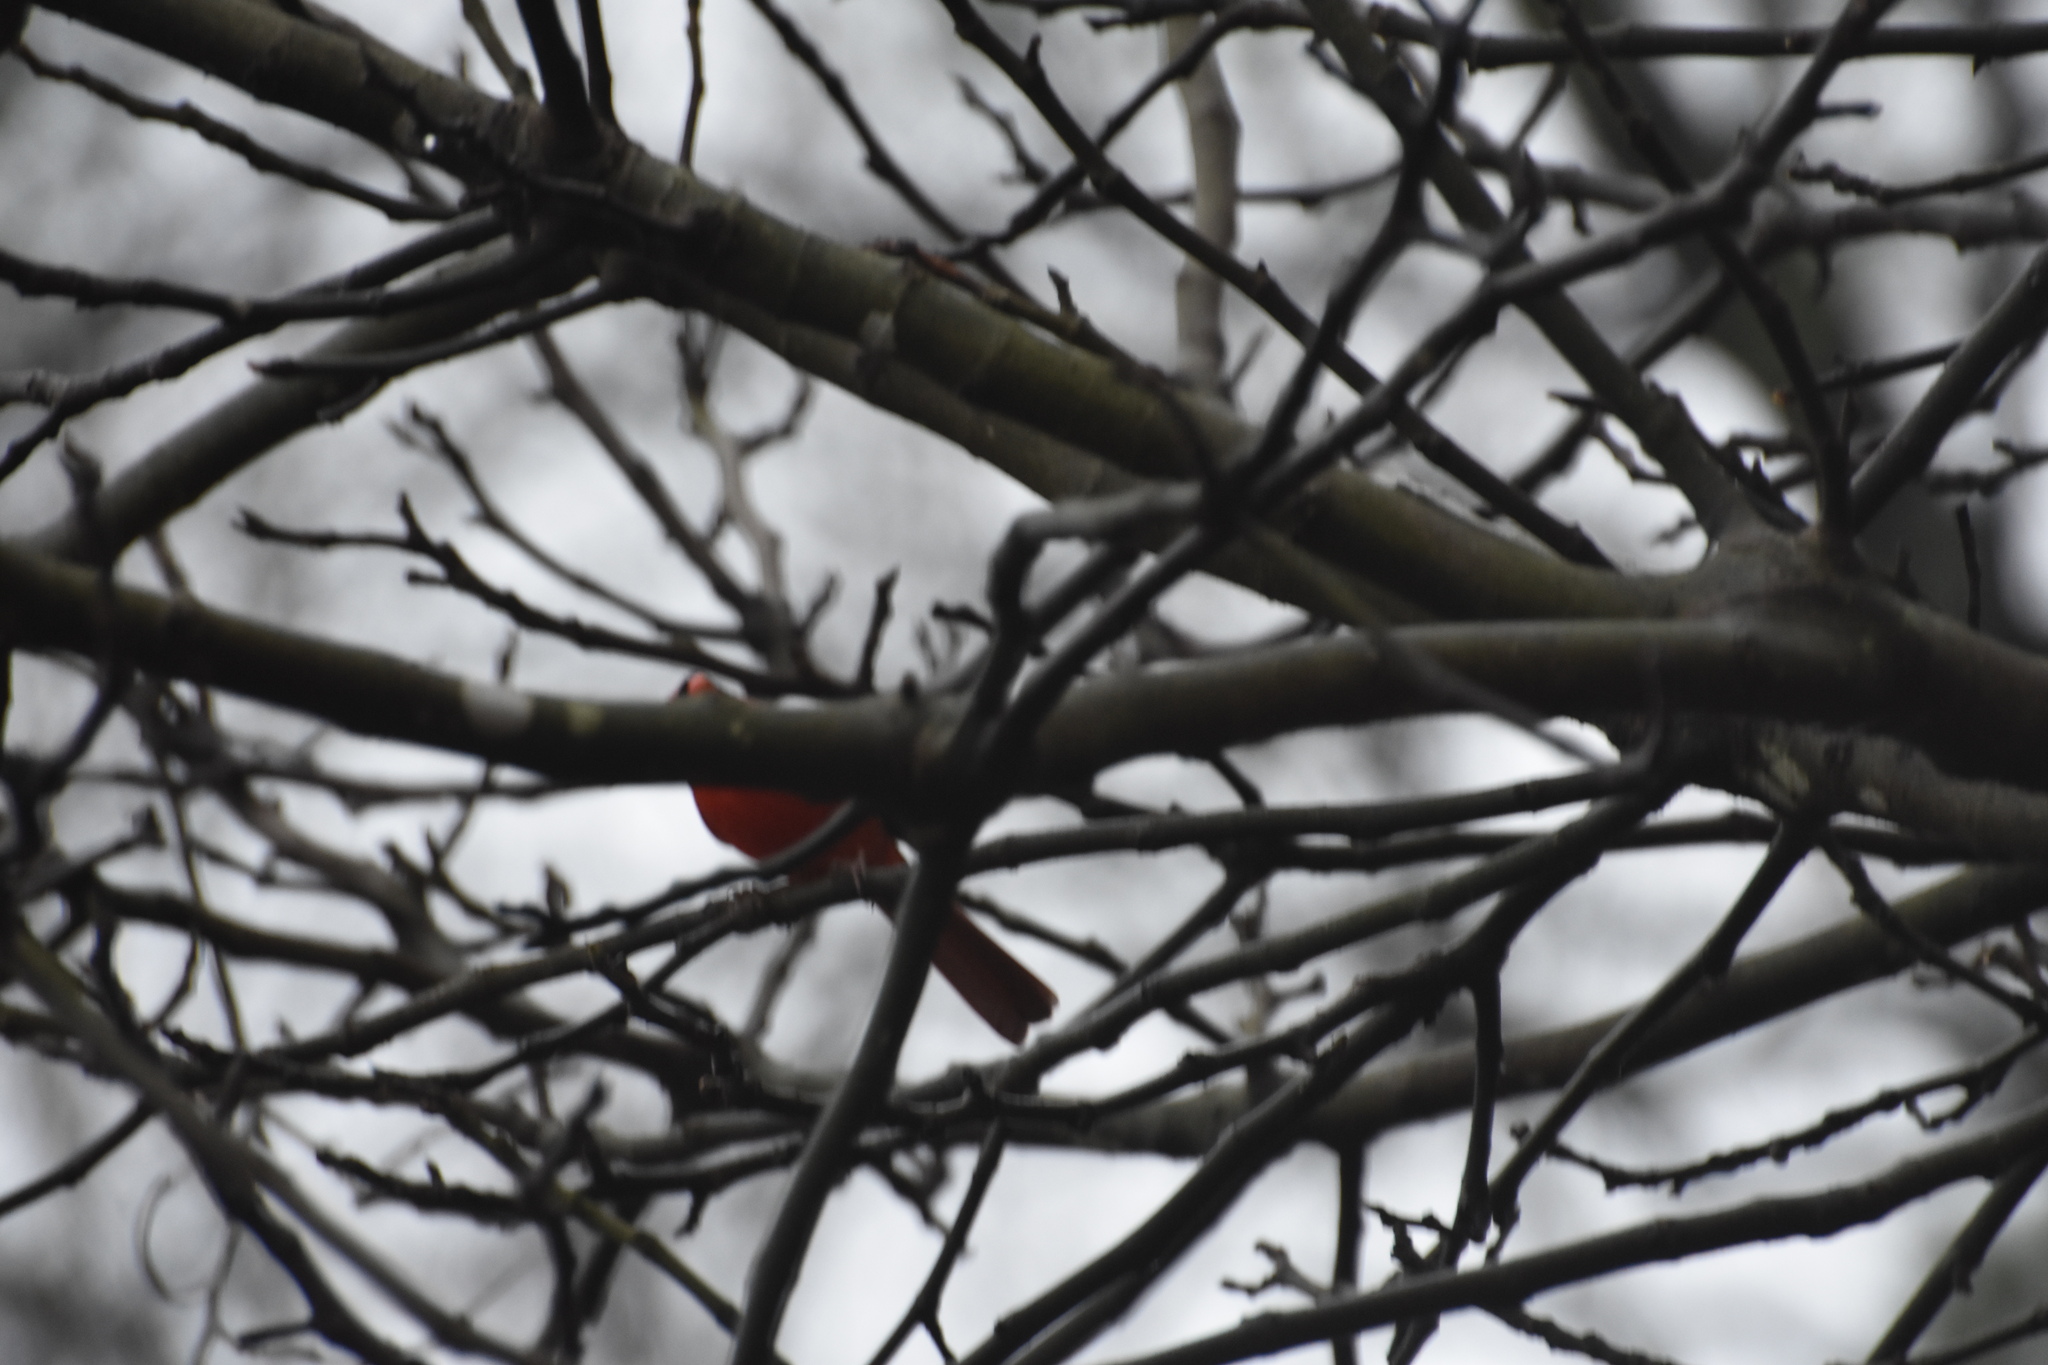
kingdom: Animalia
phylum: Chordata
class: Aves
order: Passeriformes
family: Cardinalidae
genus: Cardinalis
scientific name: Cardinalis cardinalis
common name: Northern cardinal
